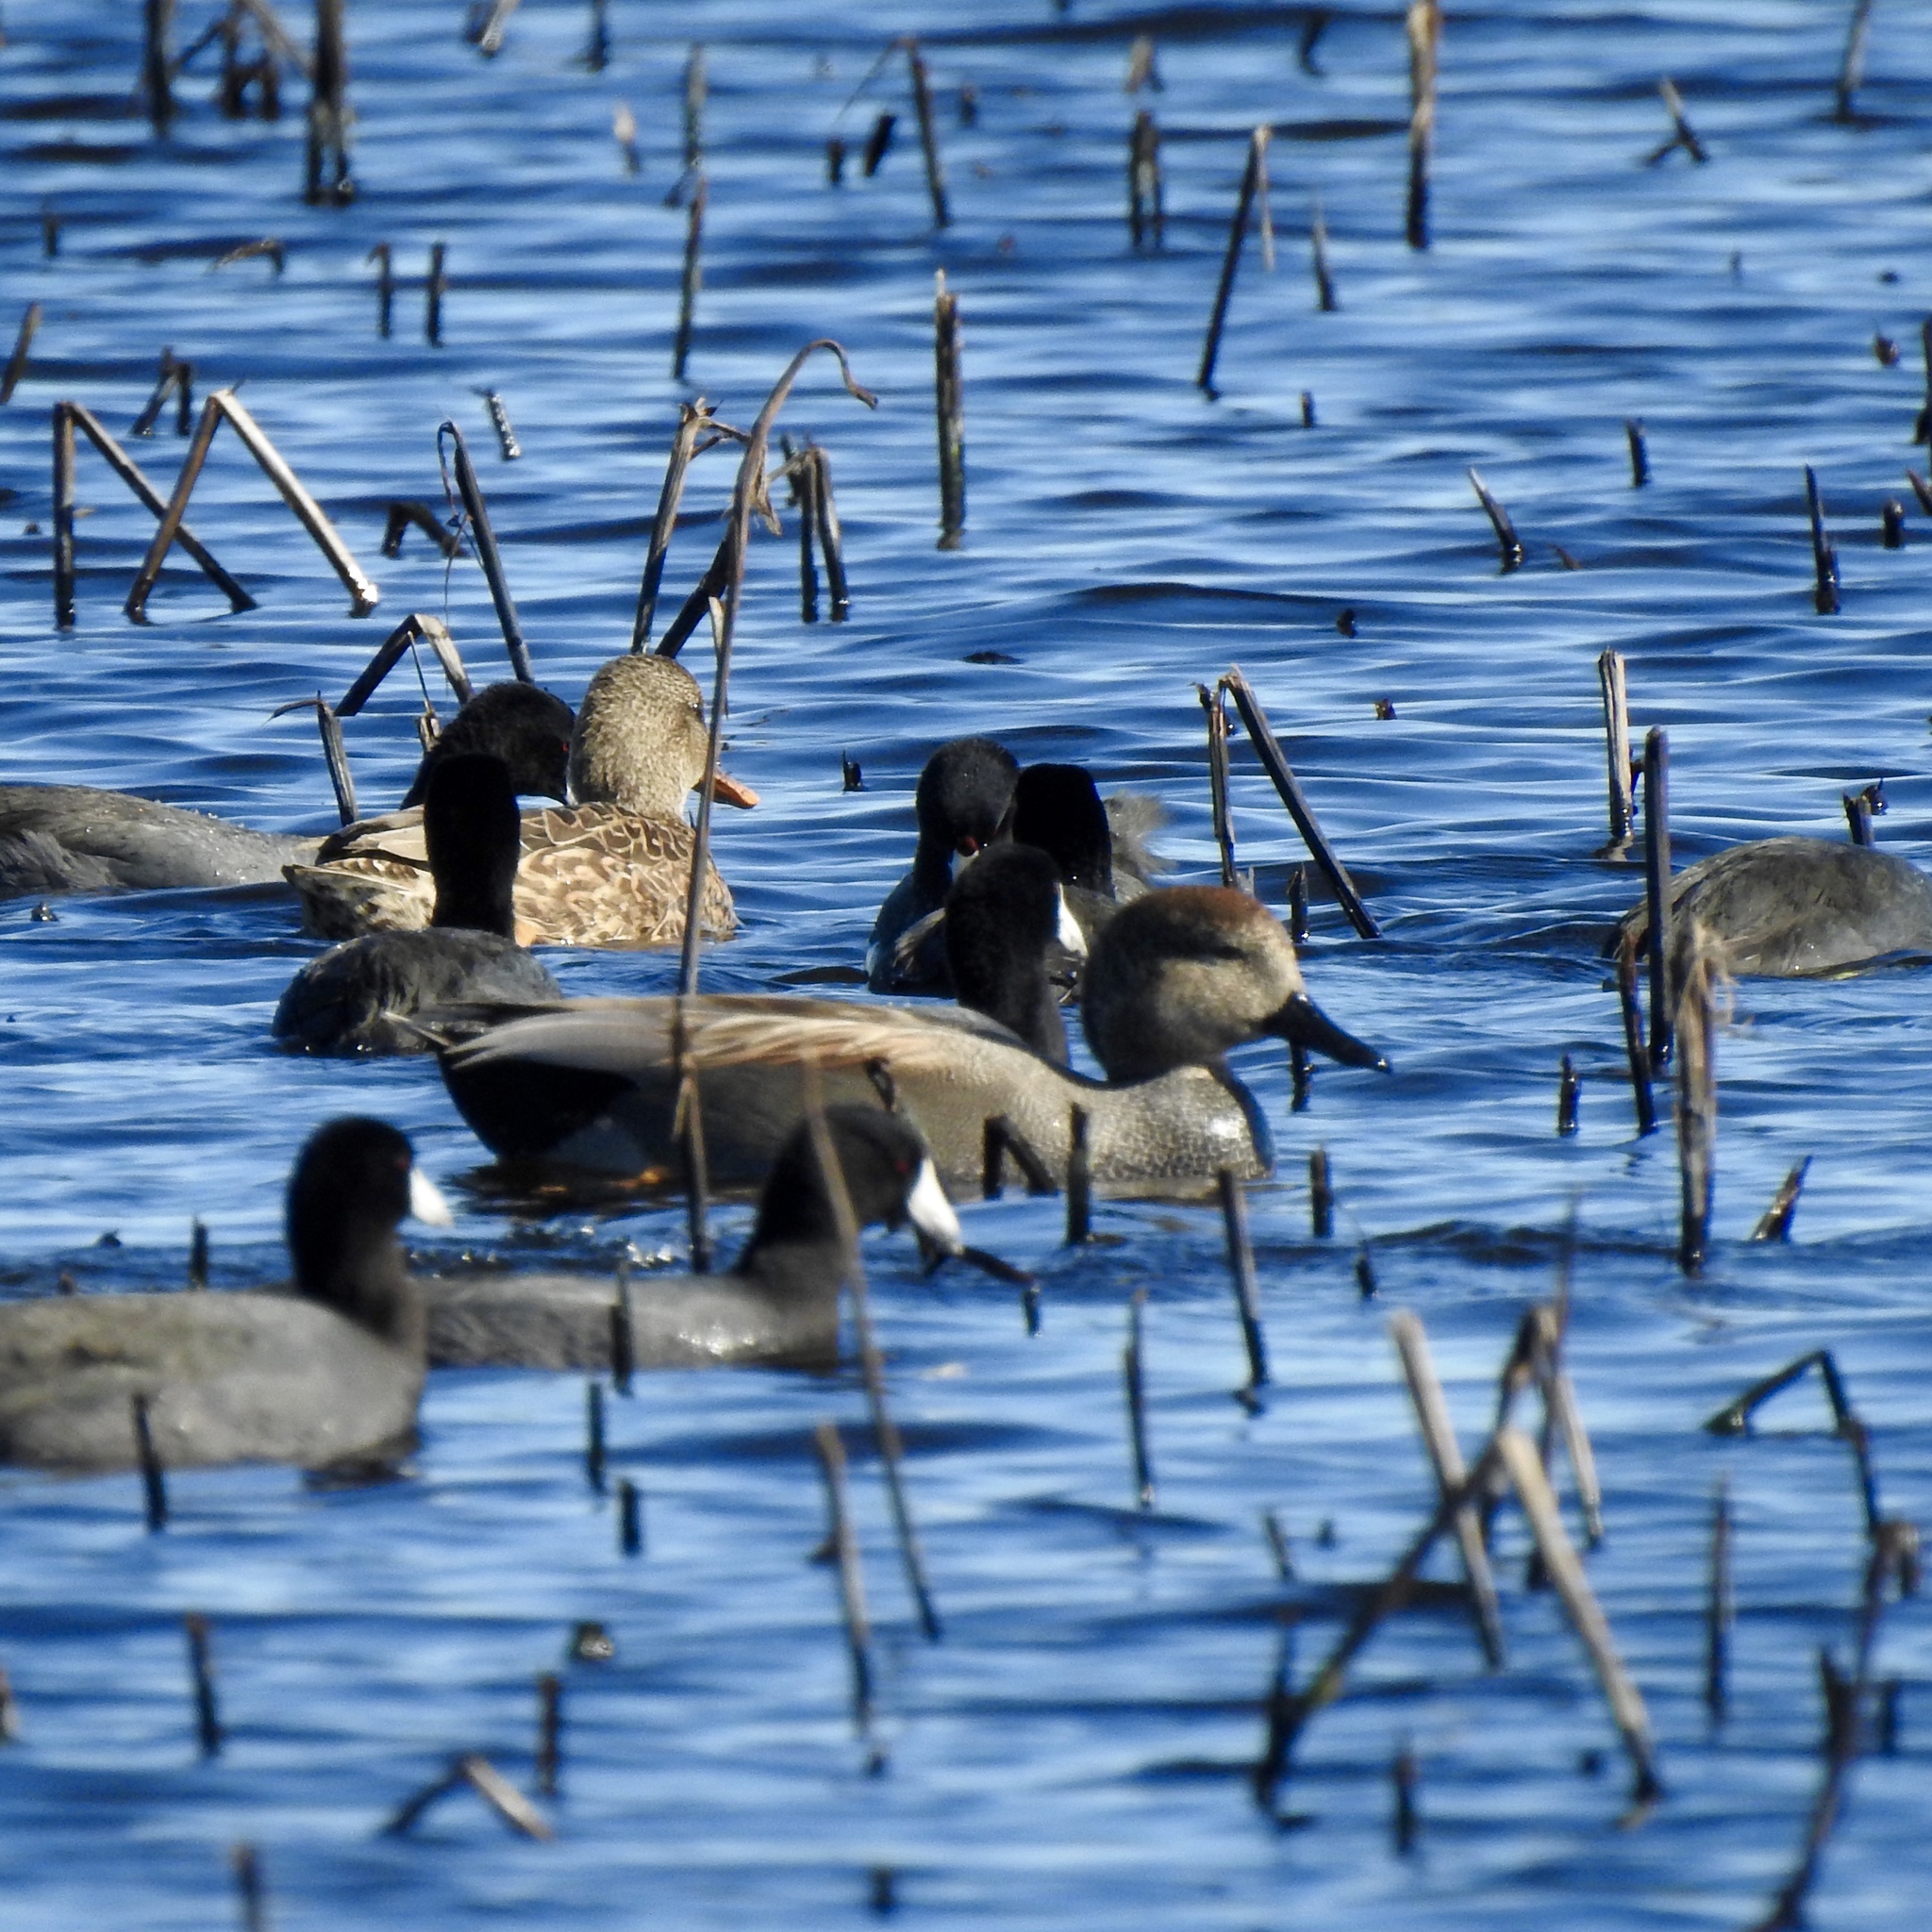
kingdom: Animalia
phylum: Chordata
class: Aves
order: Anseriformes
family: Anatidae
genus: Mareca
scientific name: Mareca strepera
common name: Gadwall
